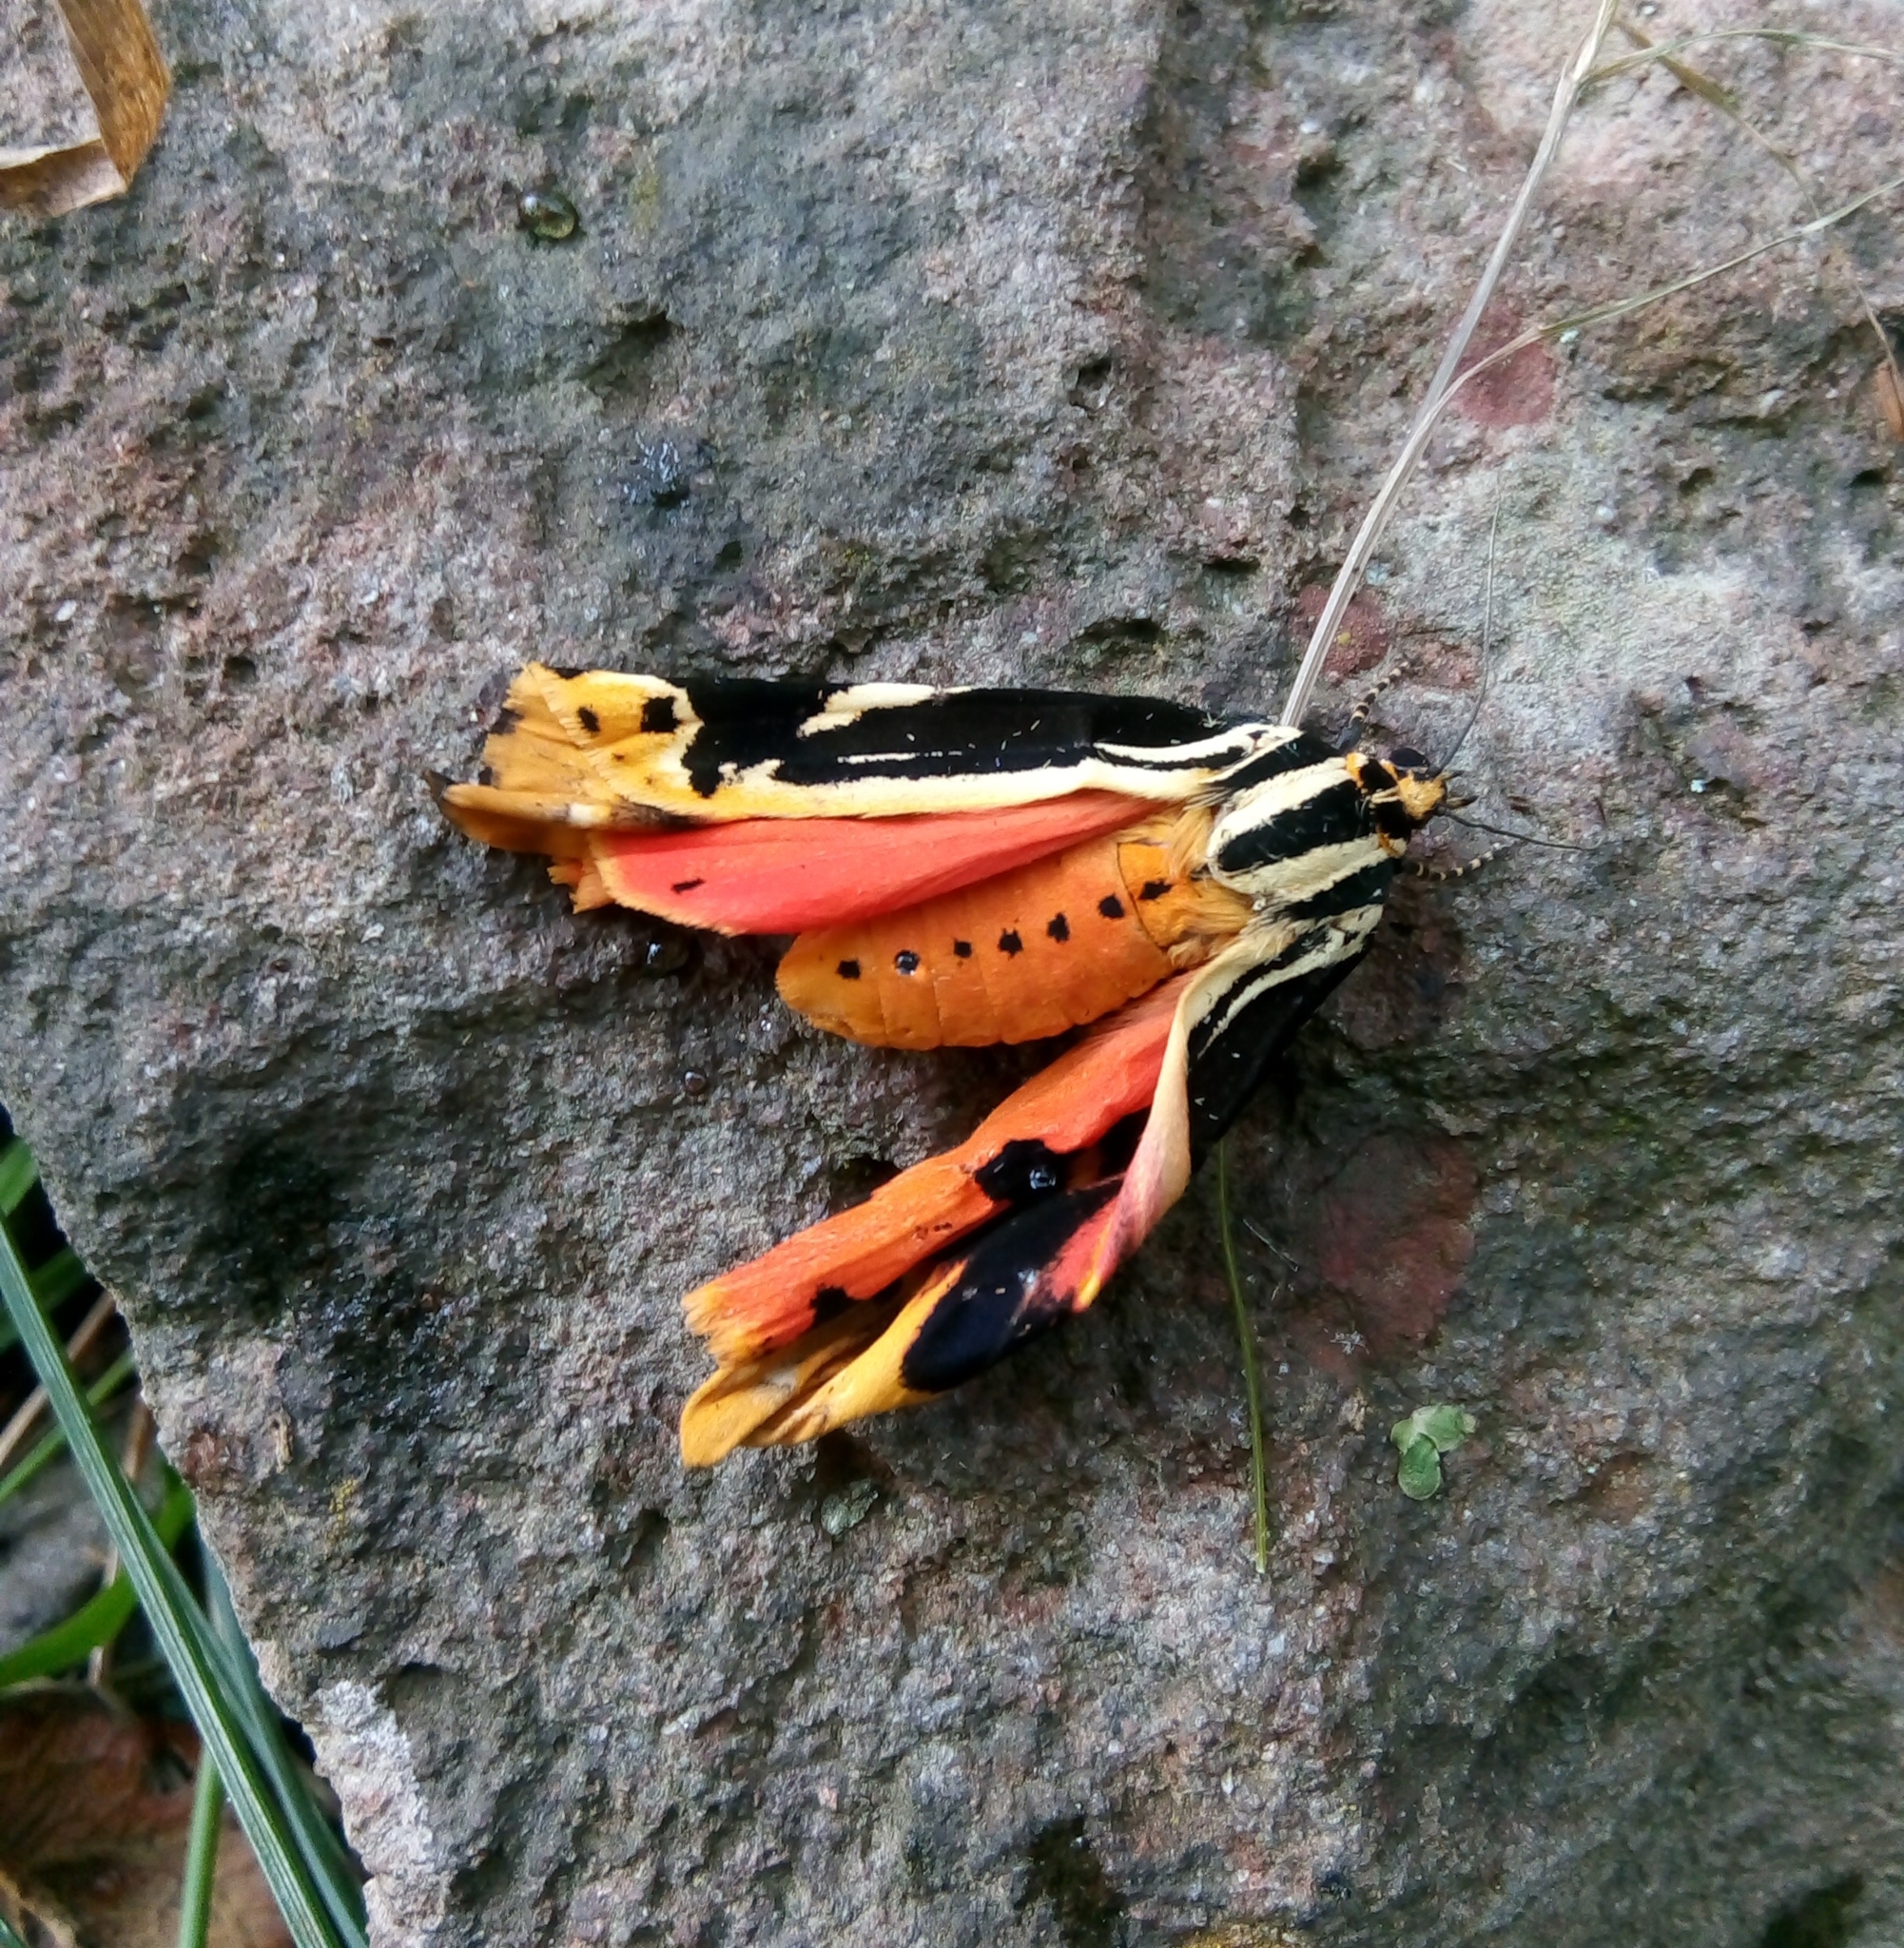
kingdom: Animalia
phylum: Arthropoda
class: Insecta
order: Lepidoptera
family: Erebidae
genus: Euplagia
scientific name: Euplagia quadripunctaria
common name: Jersey tiger
